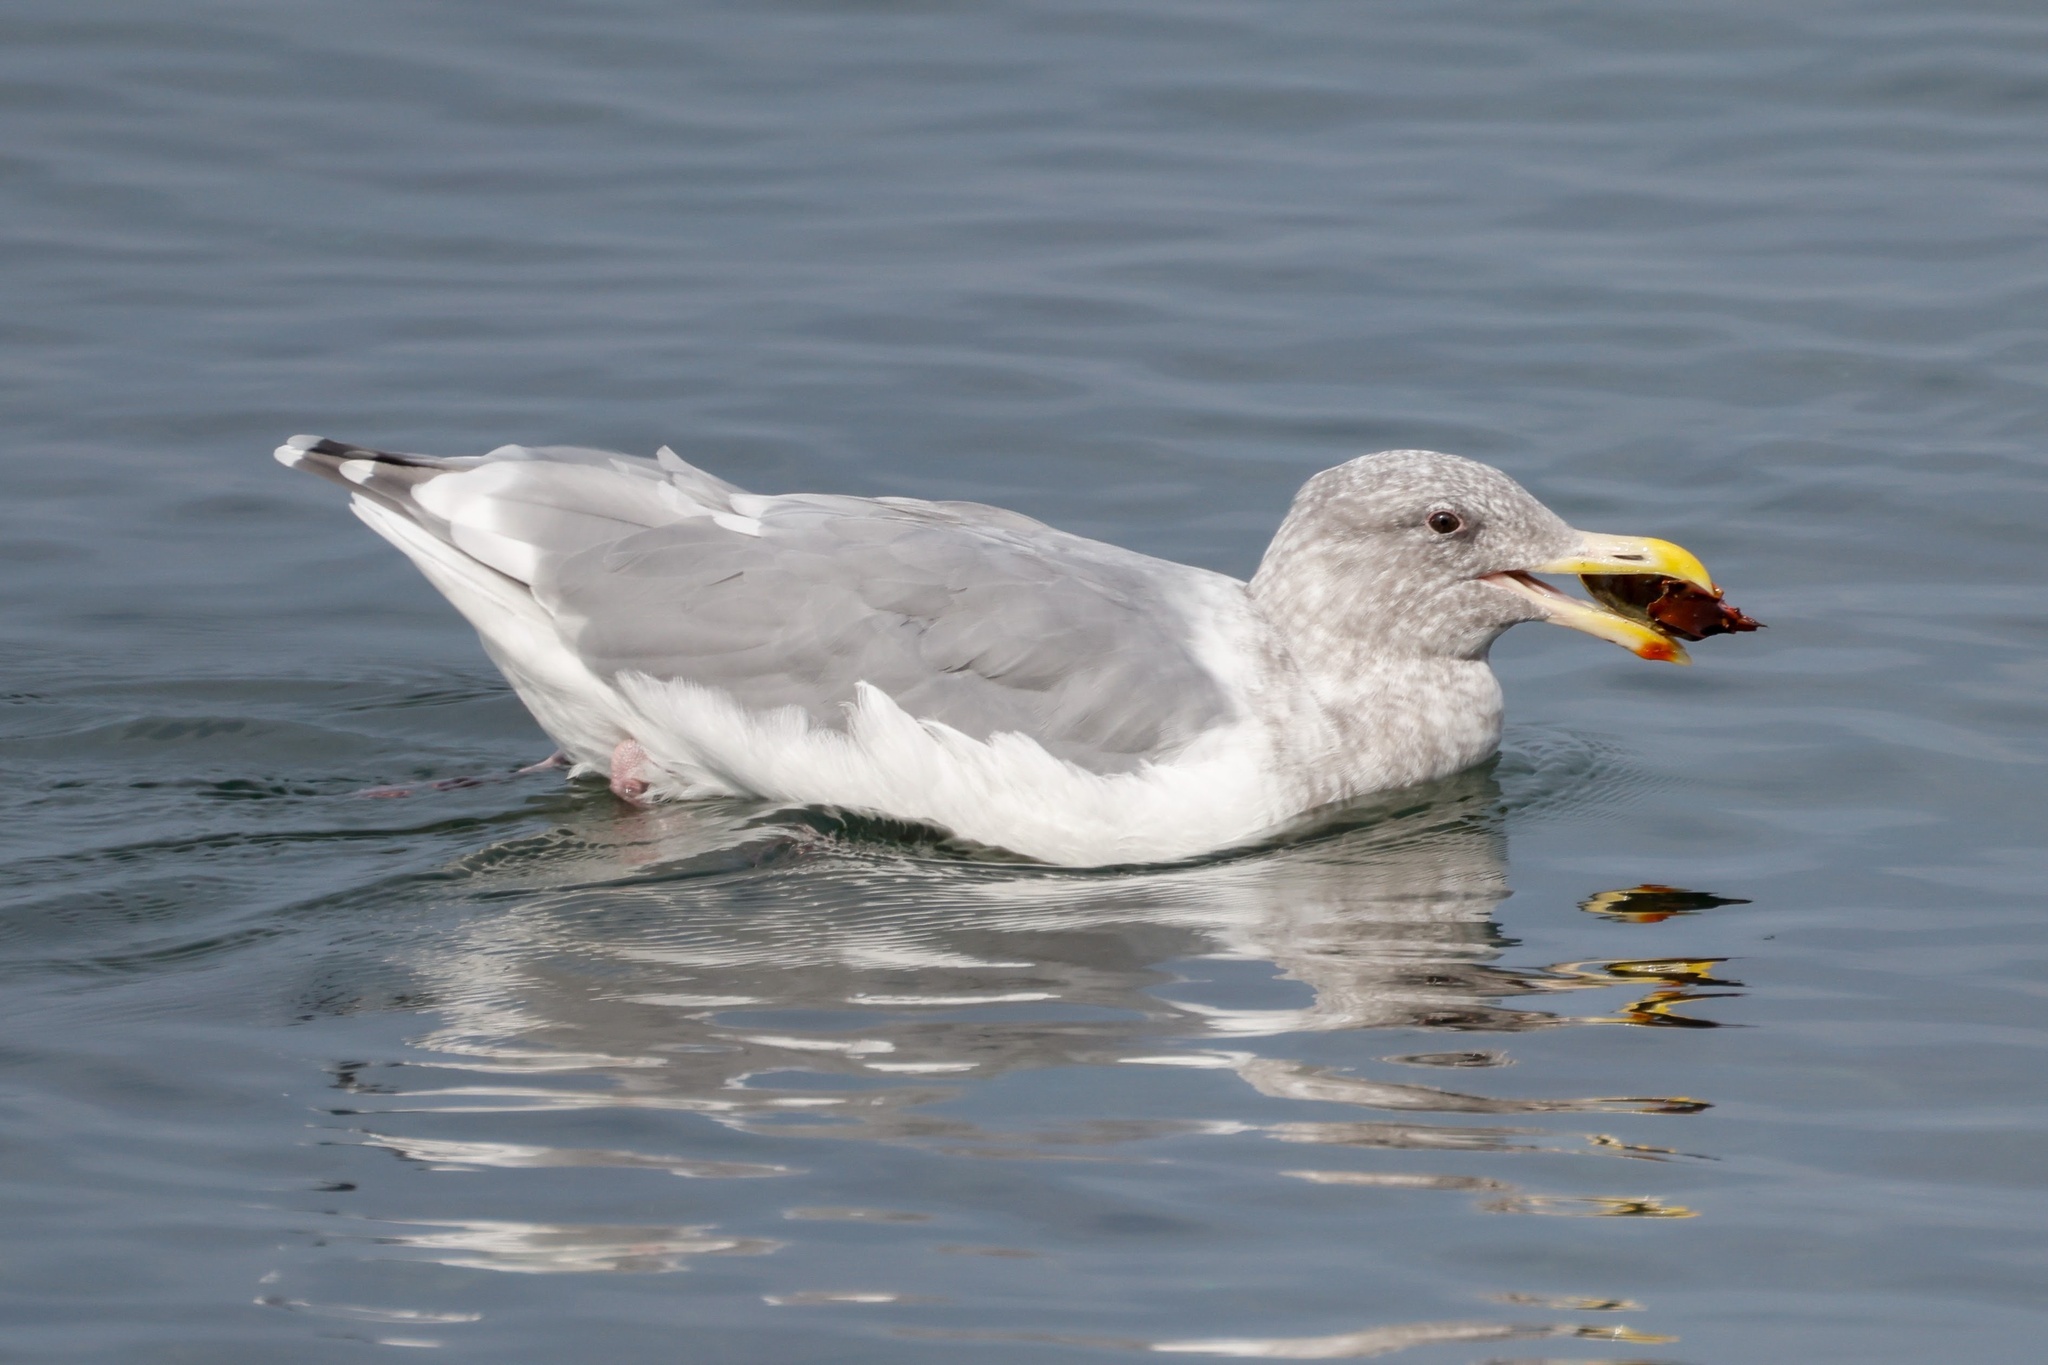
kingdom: Animalia
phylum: Chordata
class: Aves
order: Charadriiformes
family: Laridae
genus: Larus
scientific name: Larus
